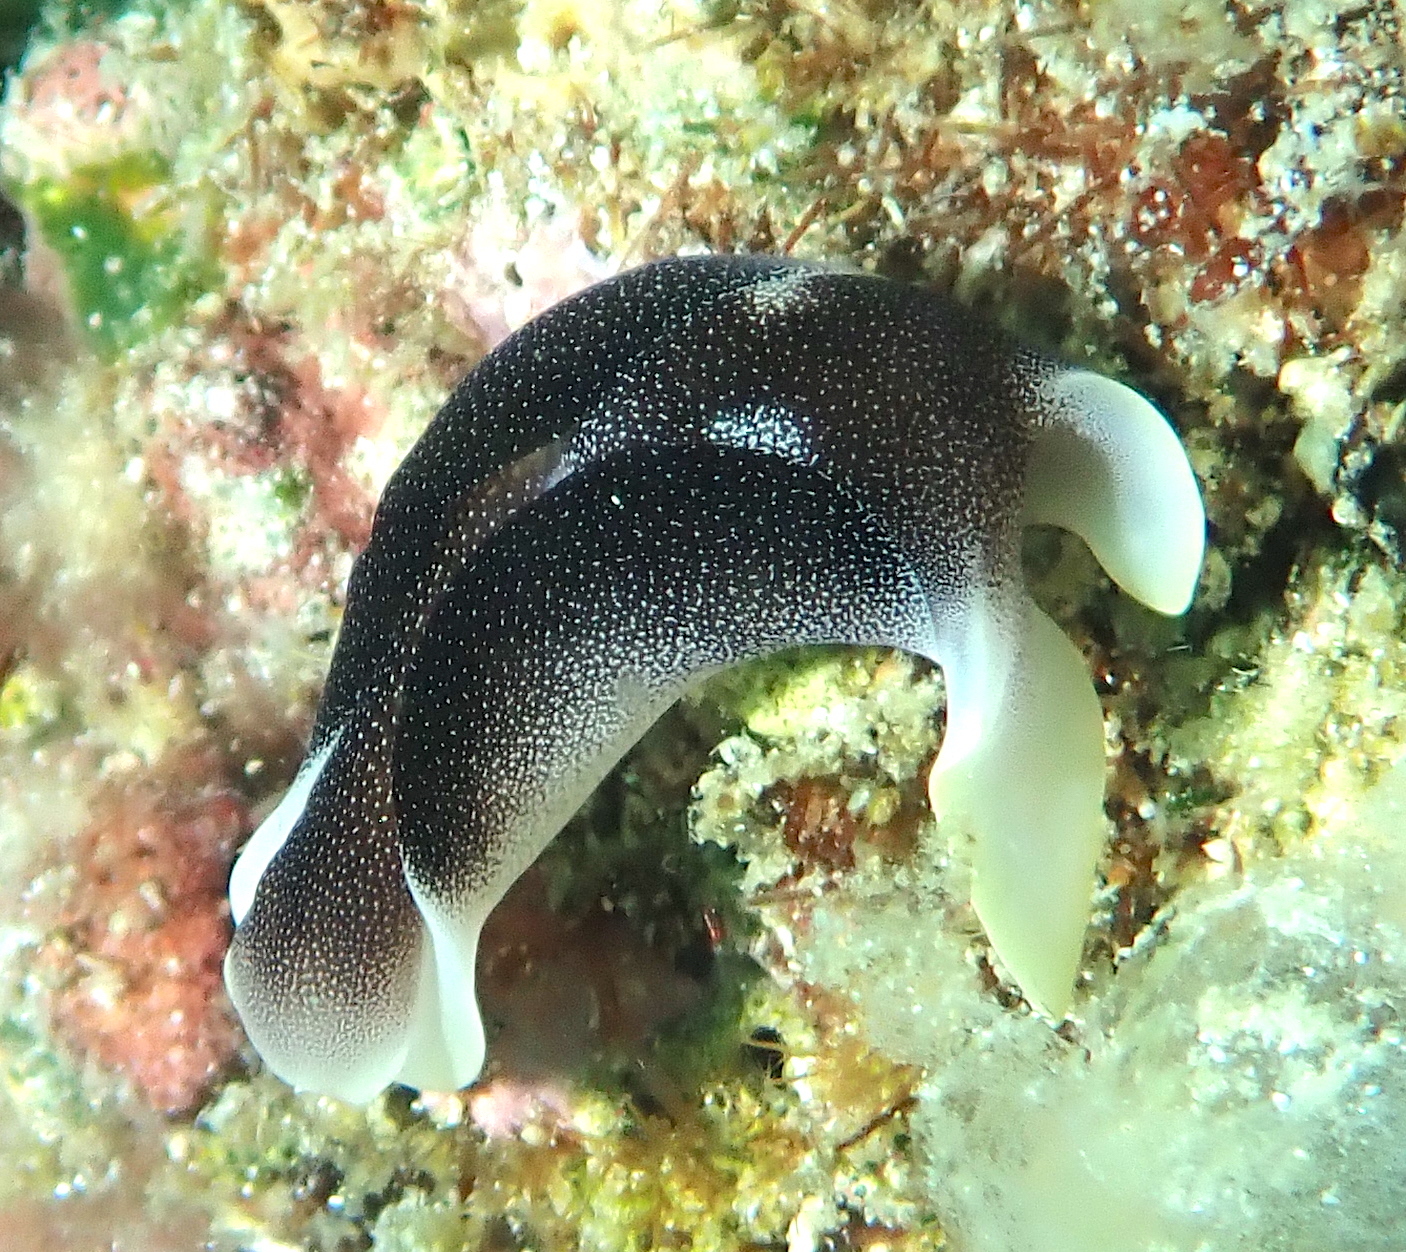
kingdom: Animalia
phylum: Mollusca
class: Gastropoda
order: Cephalaspidea
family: Aglajidae
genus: Chelidonura
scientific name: Chelidonura amoena
